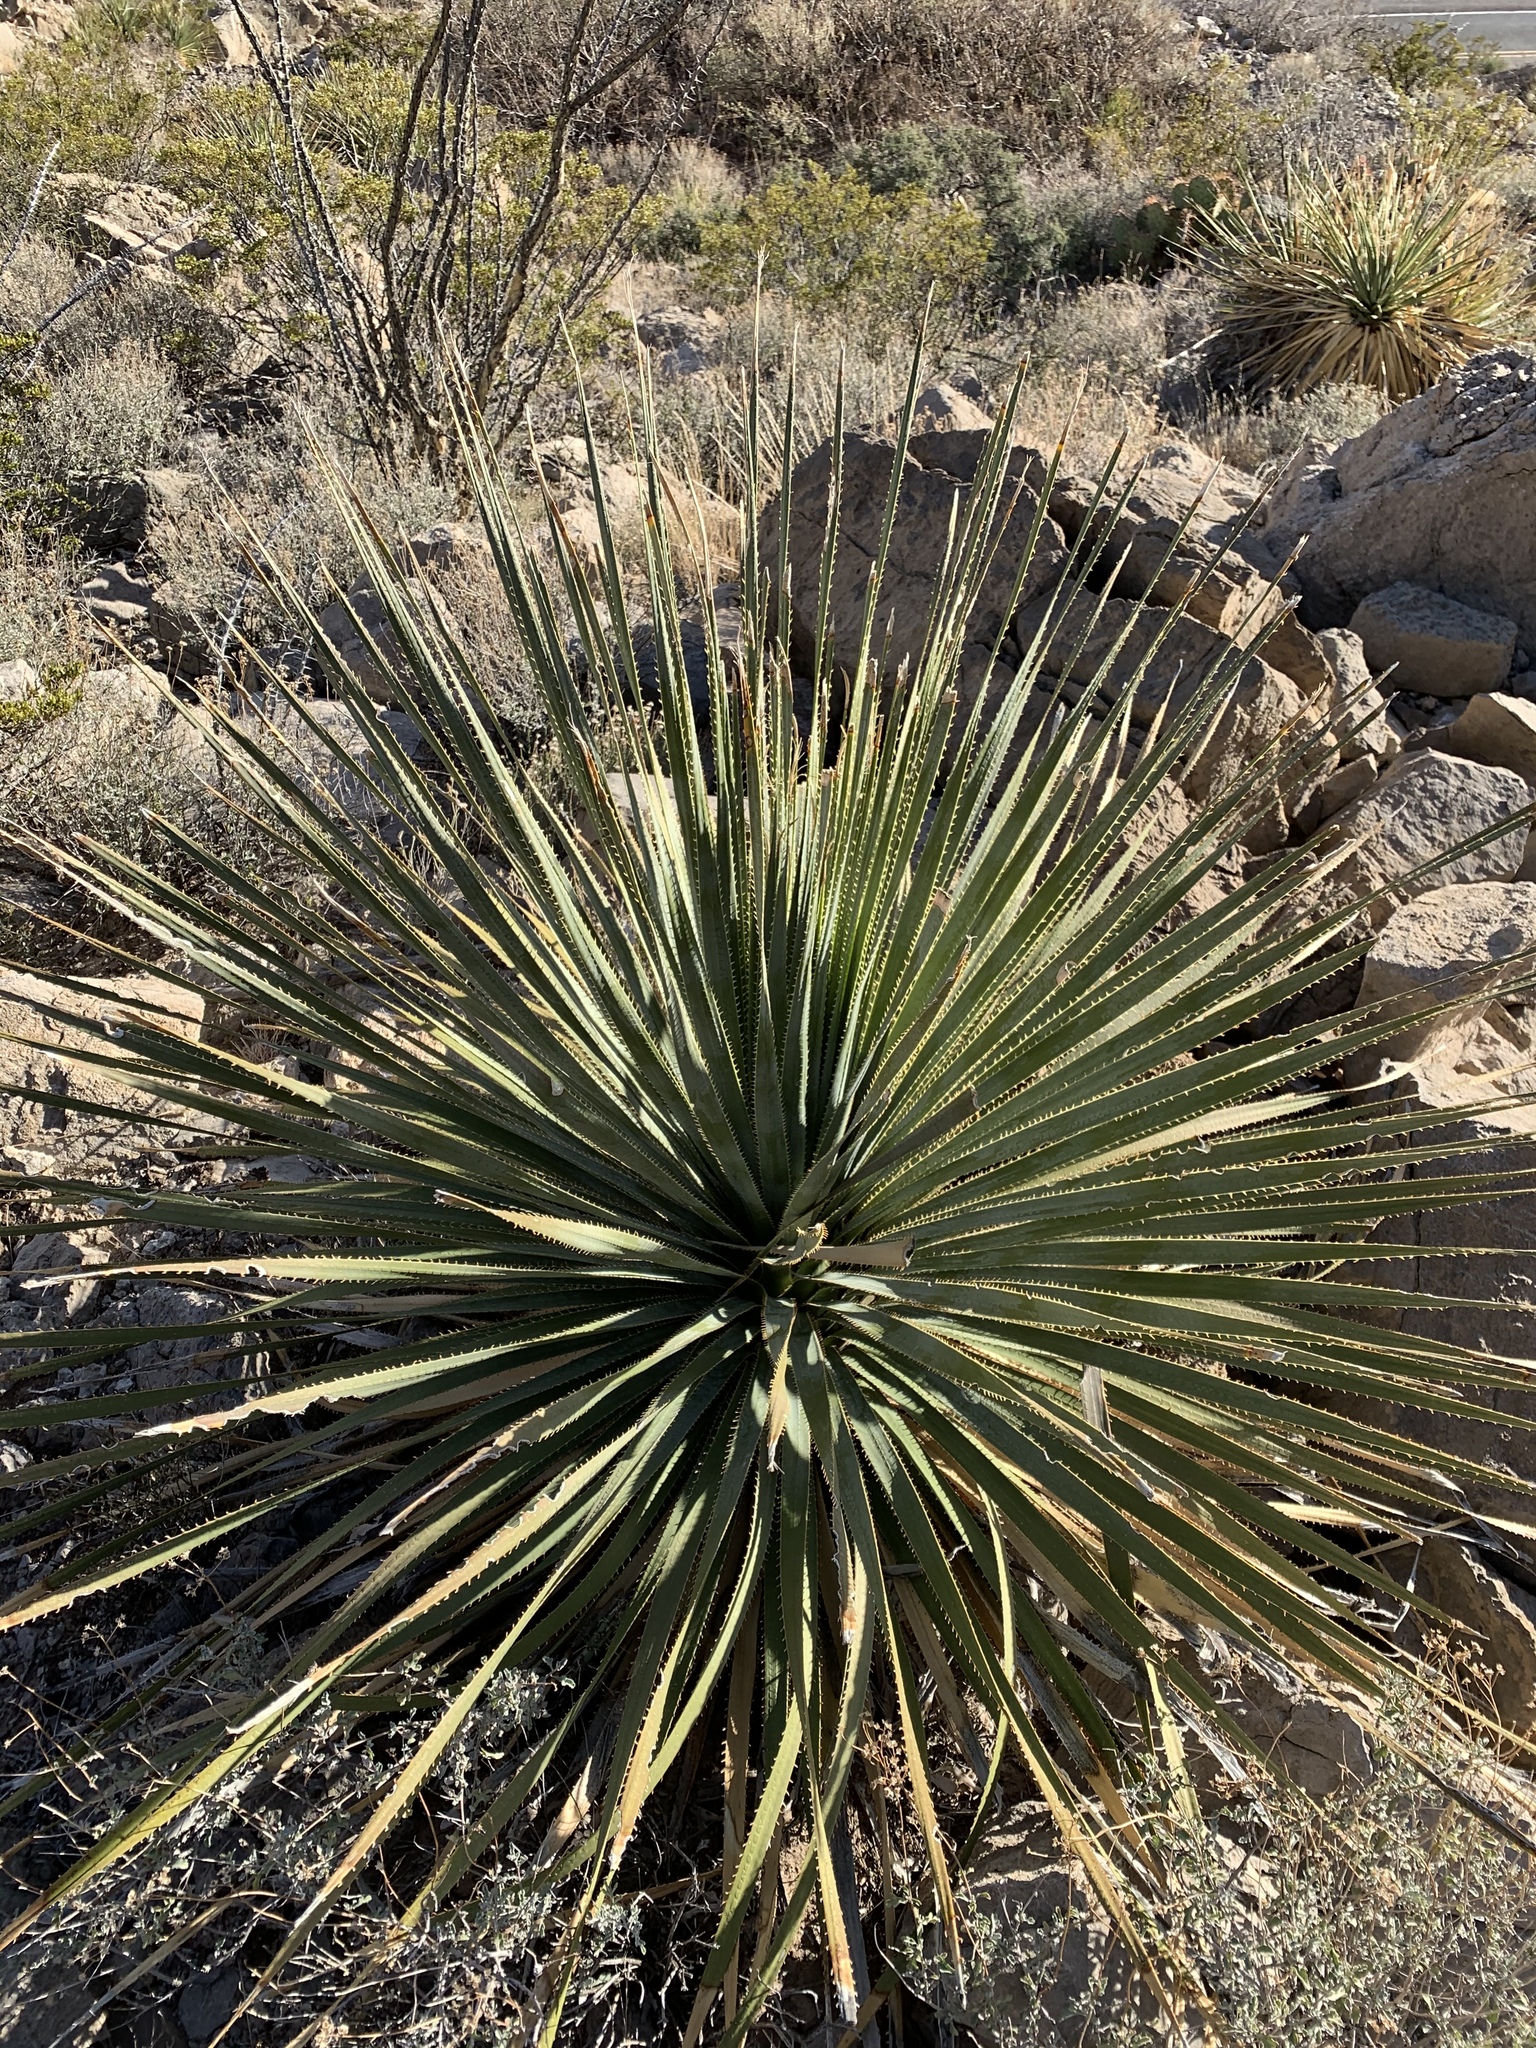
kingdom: Plantae
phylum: Tracheophyta
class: Liliopsida
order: Asparagales
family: Asparagaceae
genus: Dasylirion
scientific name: Dasylirion wheeleri
